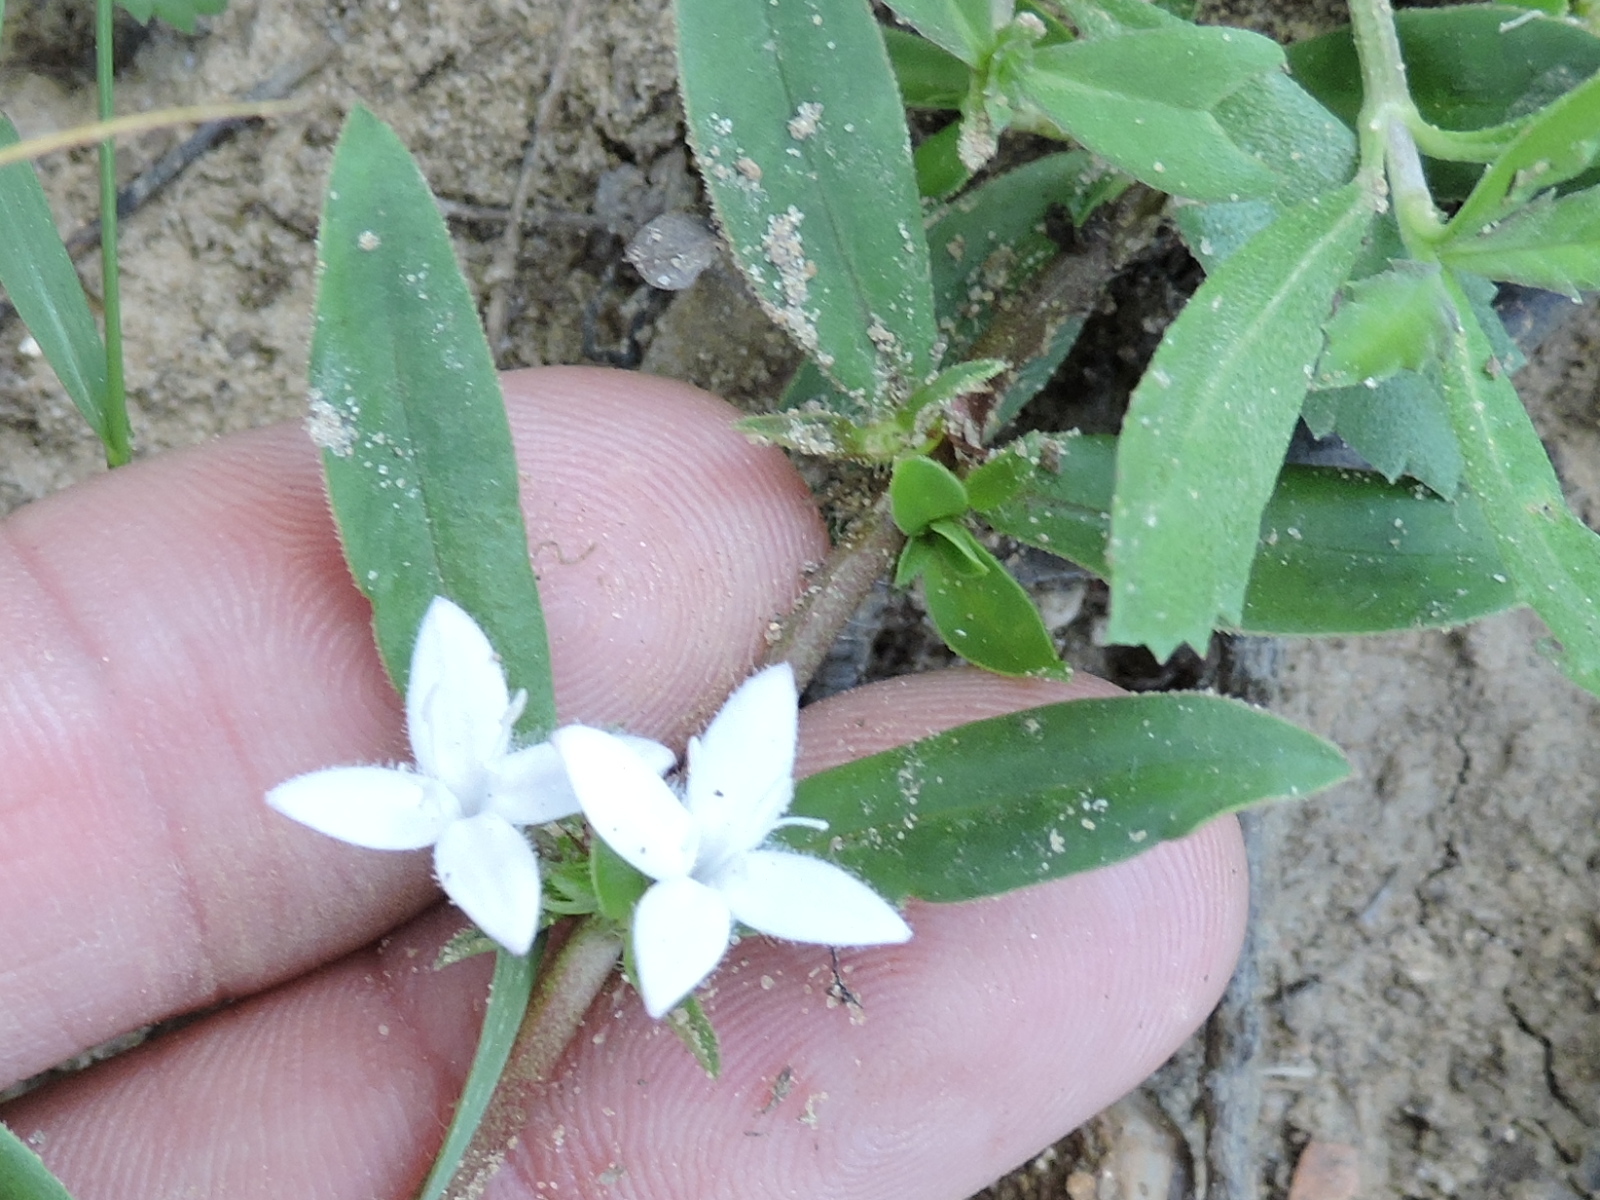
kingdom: Plantae
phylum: Tracheophyta
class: Magnoliopsida
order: Gentianales
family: Rubiaceae
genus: Diodia
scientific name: Diodia virginiana
